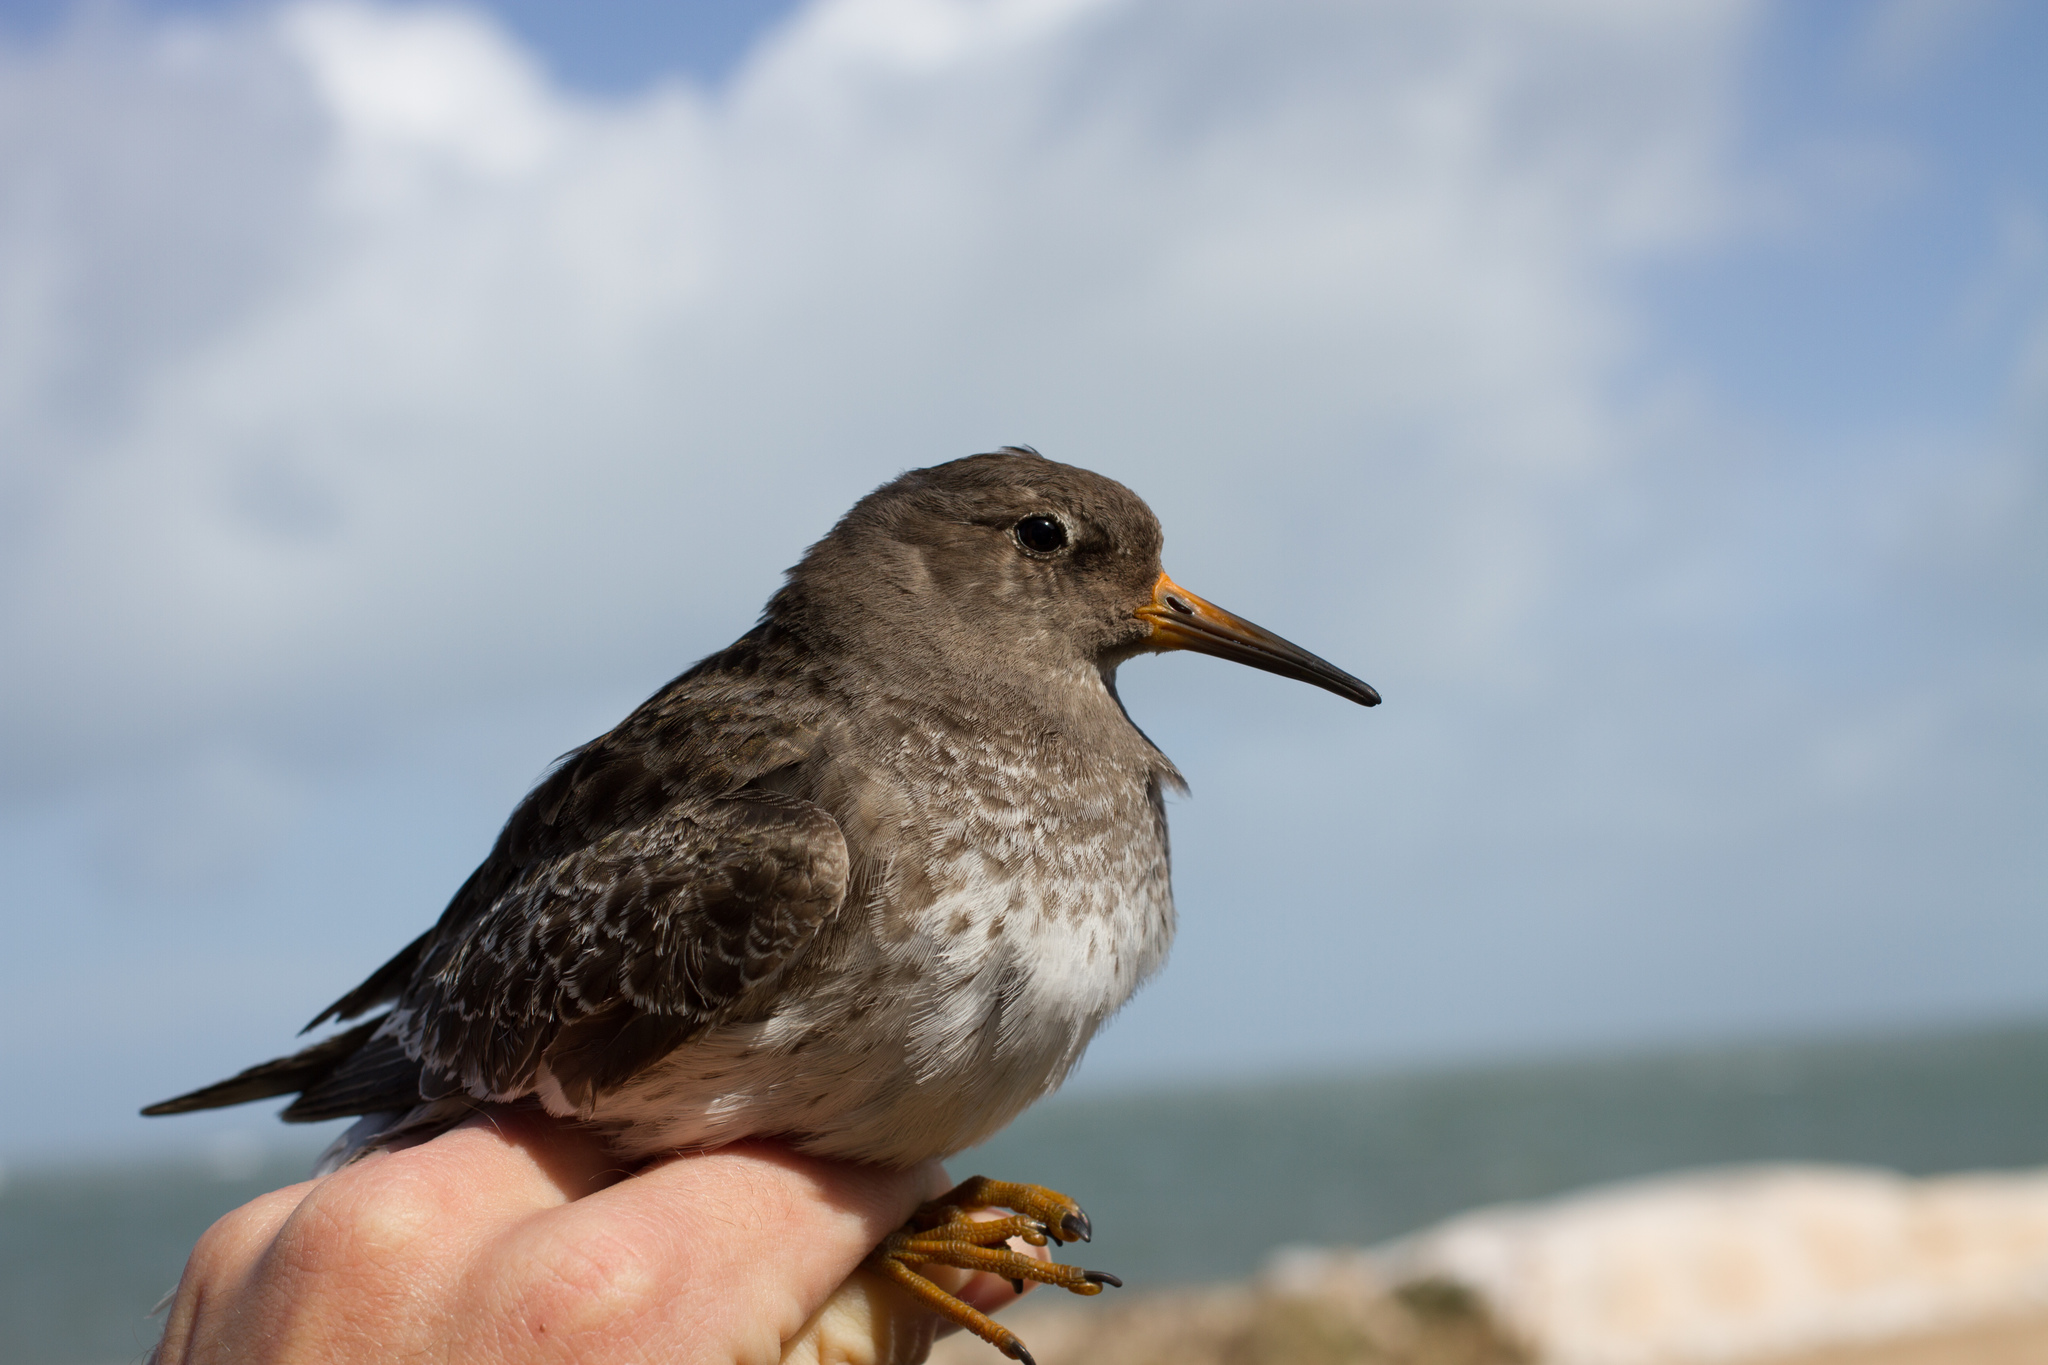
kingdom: Animalia
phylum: Chordata
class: Aves
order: Charadriiformes
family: Scolopacidae
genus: Calidris
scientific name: Calidris maritima
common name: Purple sandpiper
